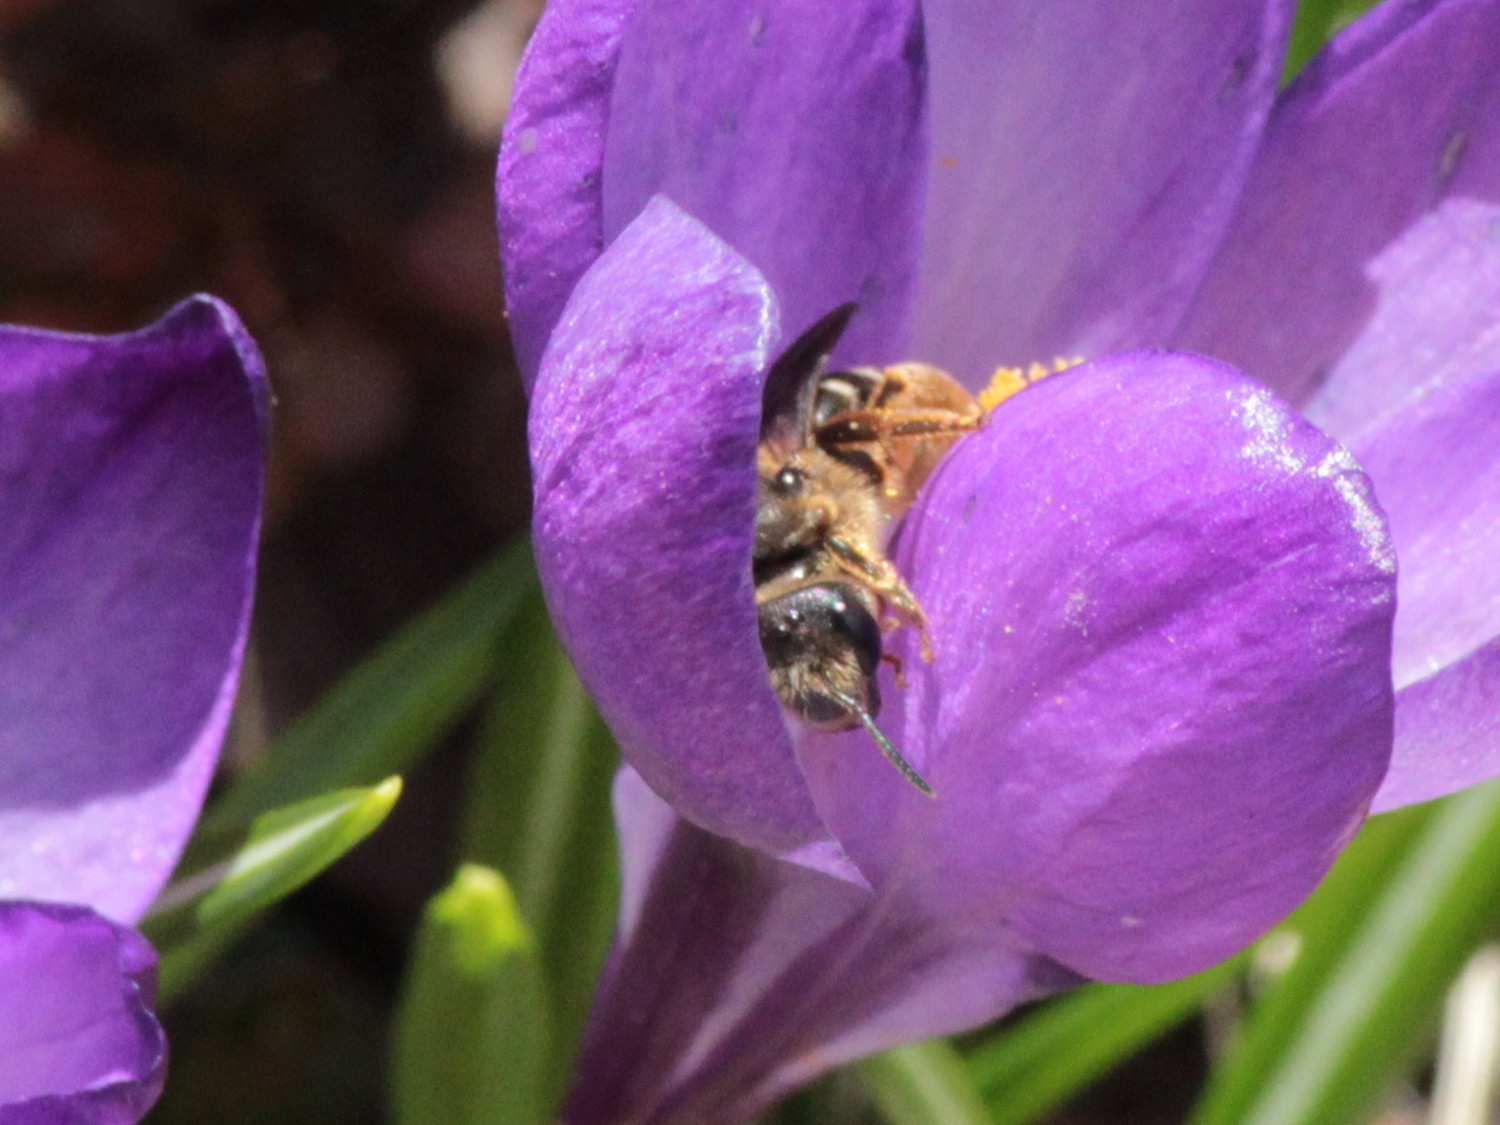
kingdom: Animalia
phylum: Arthropoda
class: Insecta
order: Hymenoptera
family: Halictidae
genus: Halictus
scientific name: Halictus rubicundus
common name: Orange-legged furrow bee
